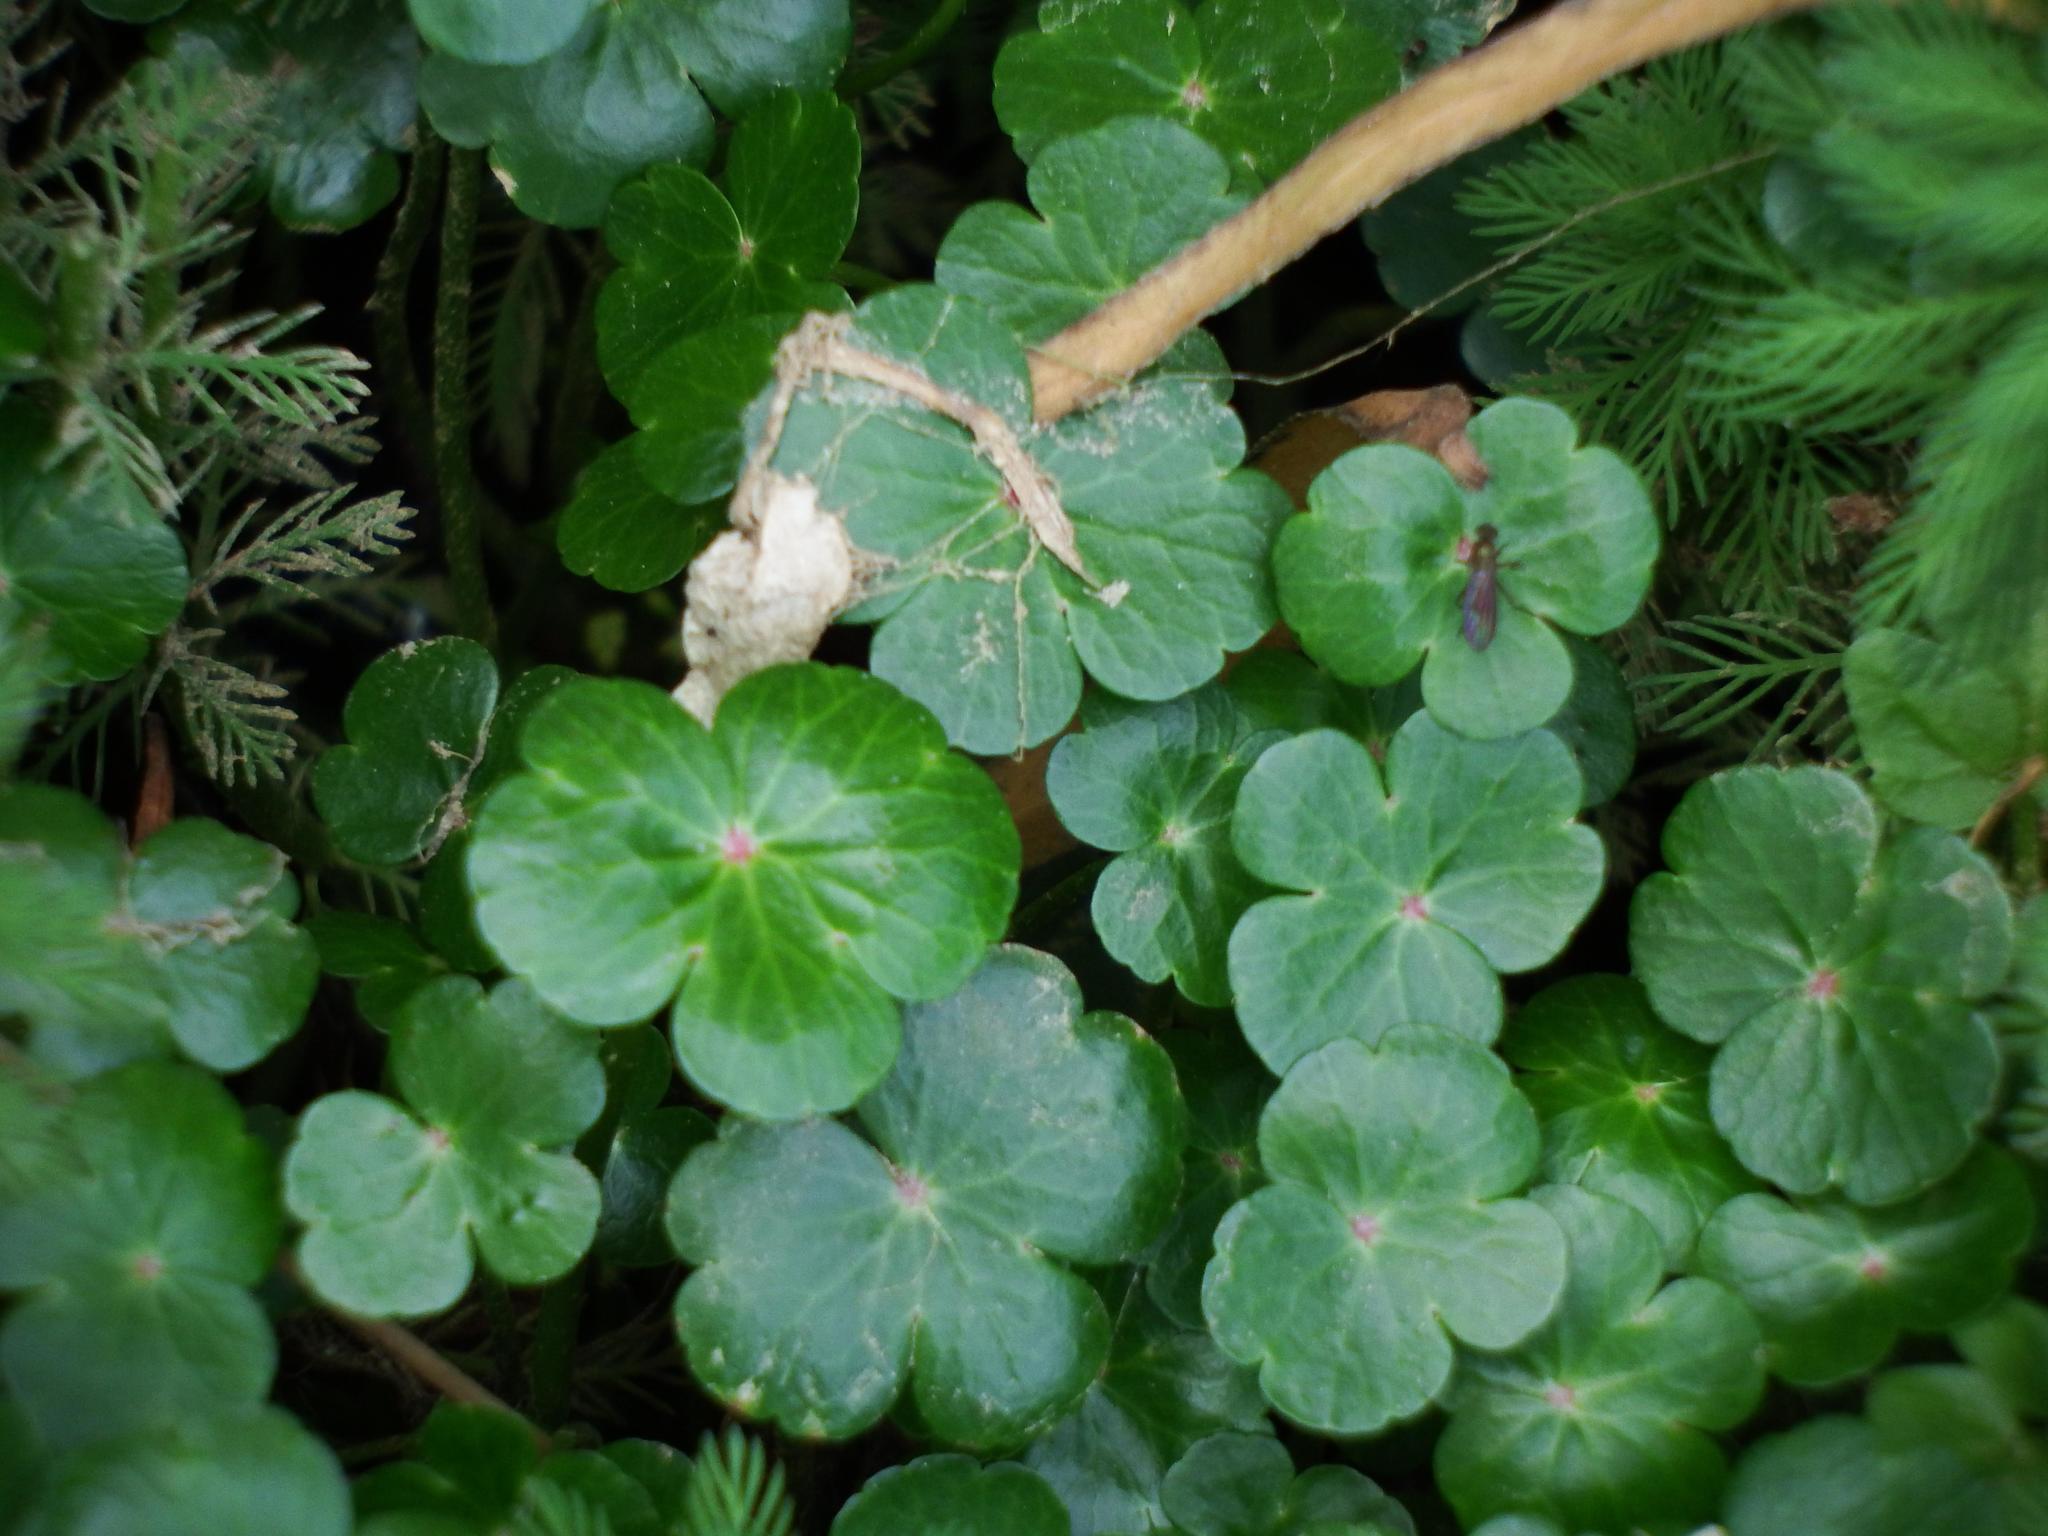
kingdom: Plantae
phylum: Tracheophyta
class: Magnoliopsida
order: Apiales
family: Araliaceae
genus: Hydrocotyle
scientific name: Hydrocotyle ranunculoides
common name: Floating pennywort
